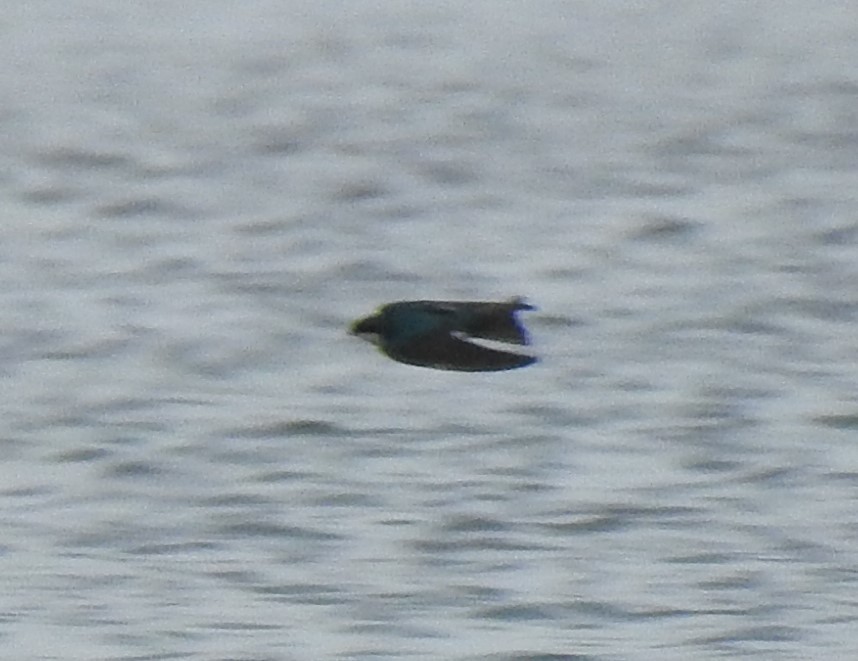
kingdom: Animalia
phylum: Chordata
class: Aves
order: Passeriformes
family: Hirundinidae
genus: Tachycineta
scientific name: Tachycineta bicolor
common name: Tree swallow
